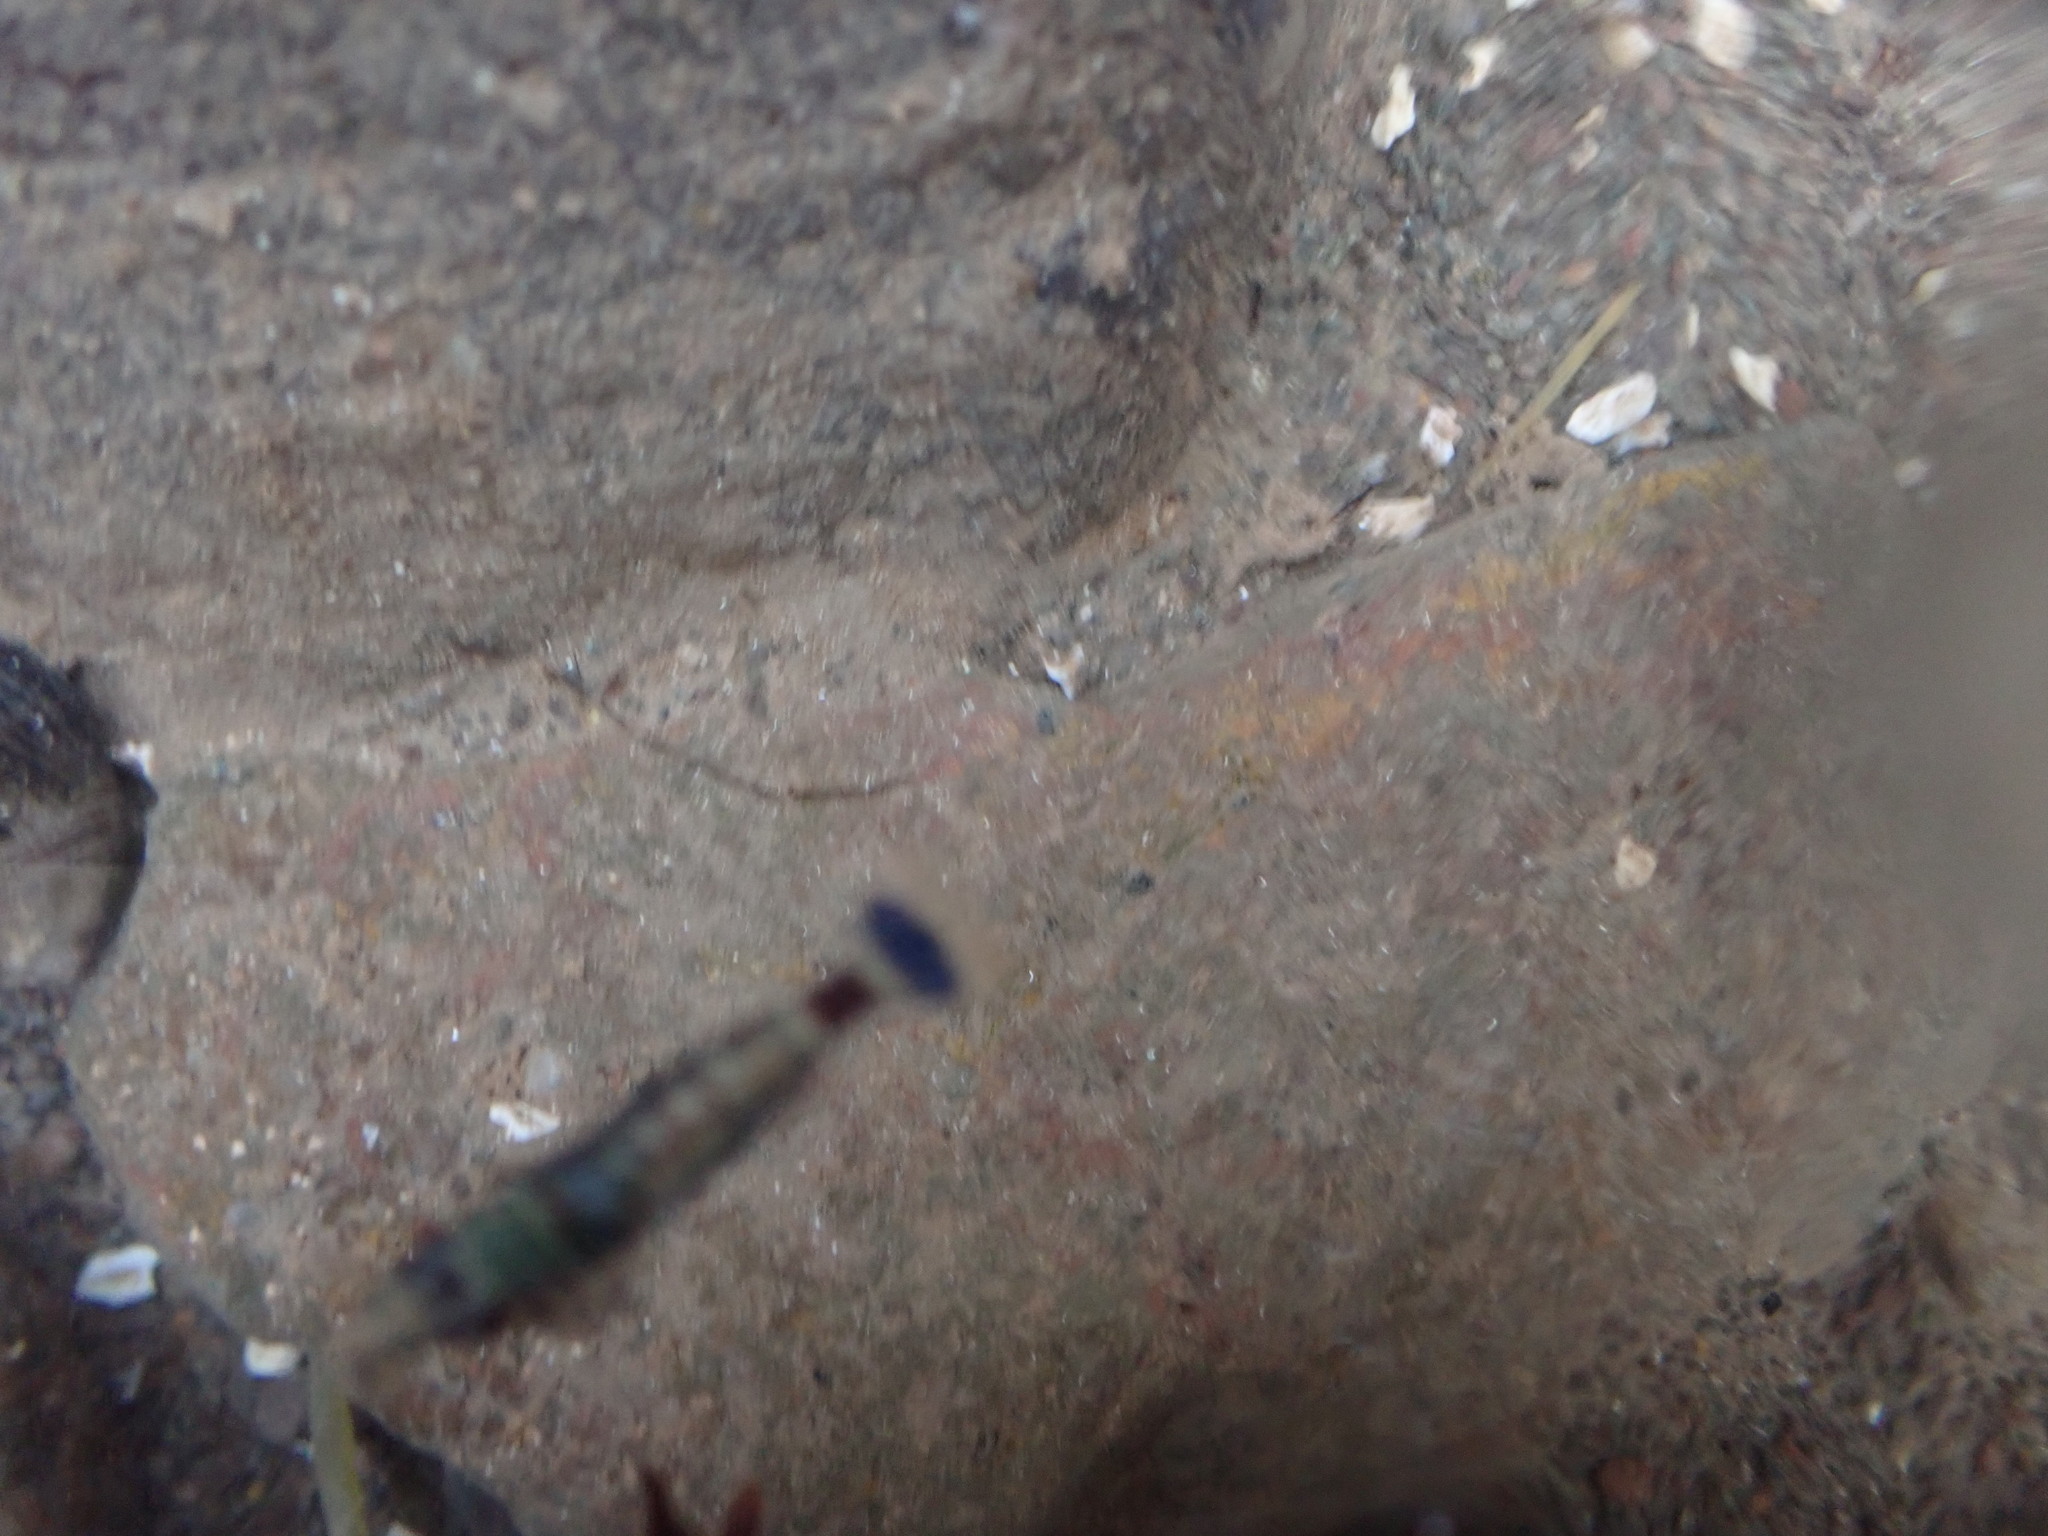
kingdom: Animalia
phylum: Arthropoda
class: Malacostraca
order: Decapoda
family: Thoridae
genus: Eualus
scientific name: Eualus pusiolus
